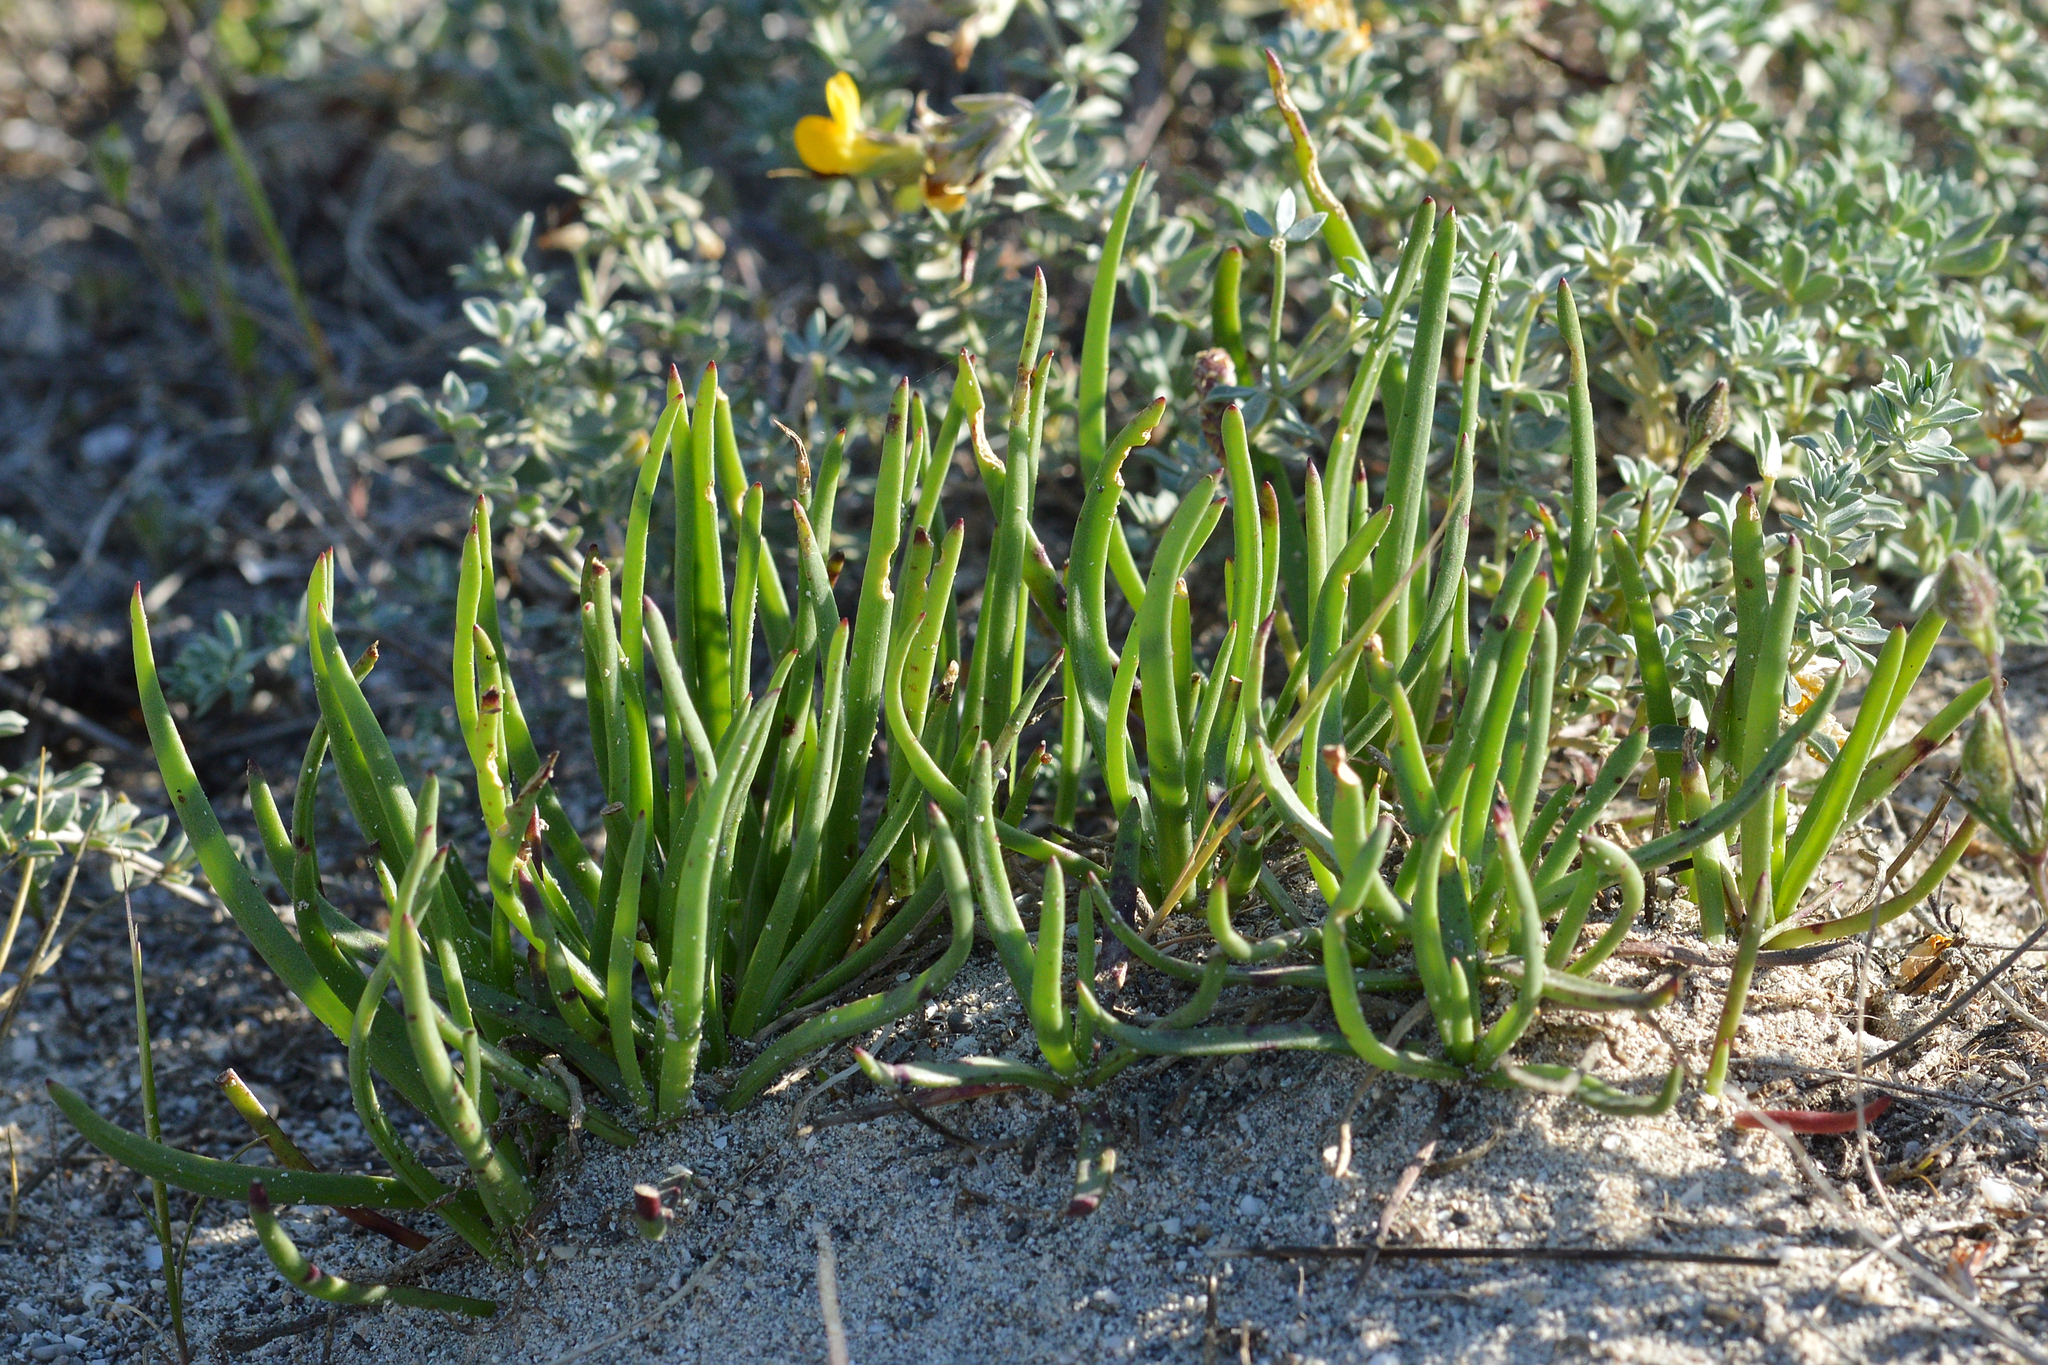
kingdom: Plantae
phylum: Tracheophyta
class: Magnoliopsida
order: Lamiales
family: Plantaginaceae
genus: Plantago
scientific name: Plantago crassifolia
